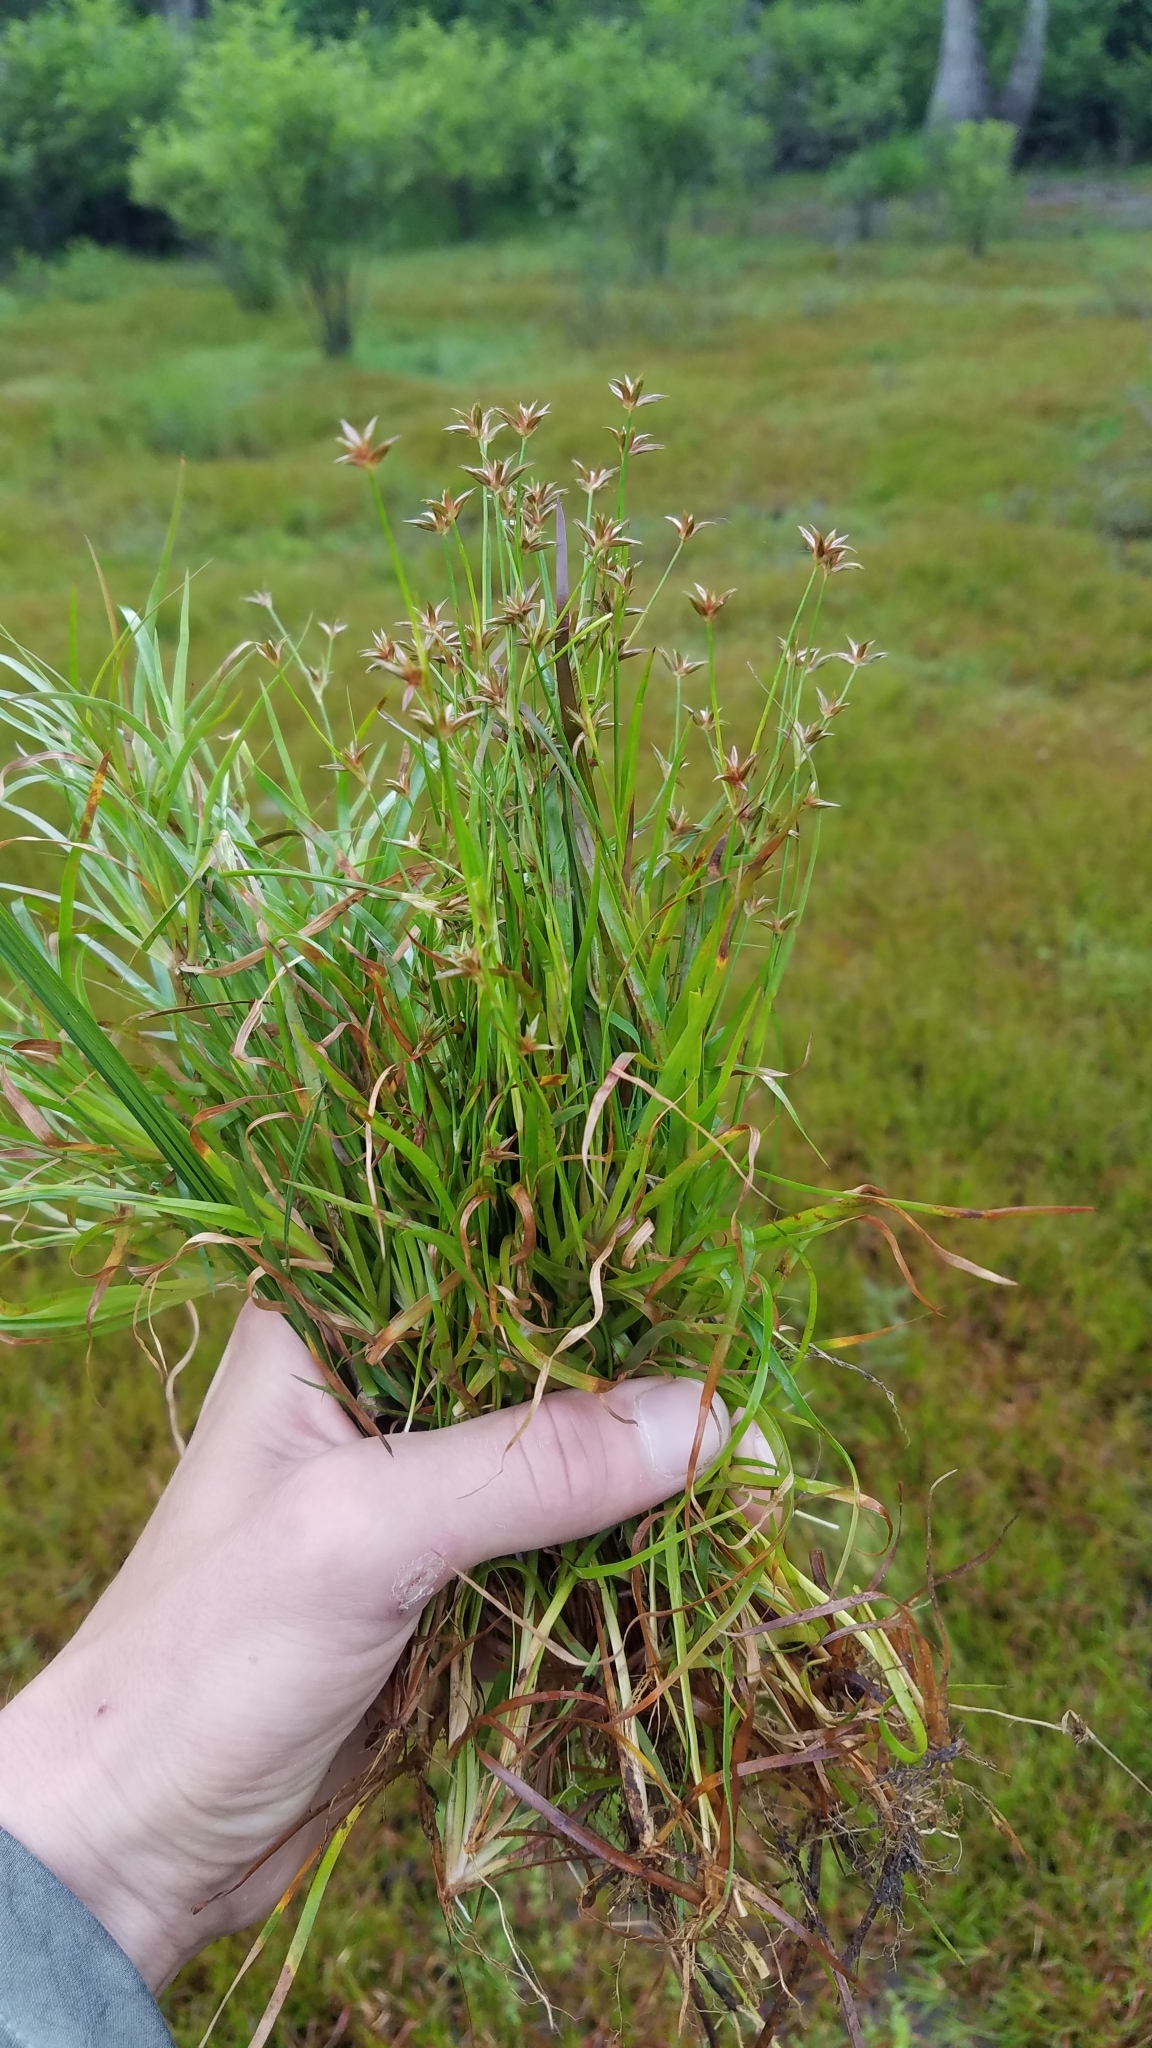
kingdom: Plantae
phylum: Tracheophyta
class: Liliopsida
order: Poales
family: Juncaceae
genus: Juncus
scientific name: Juncus repens
